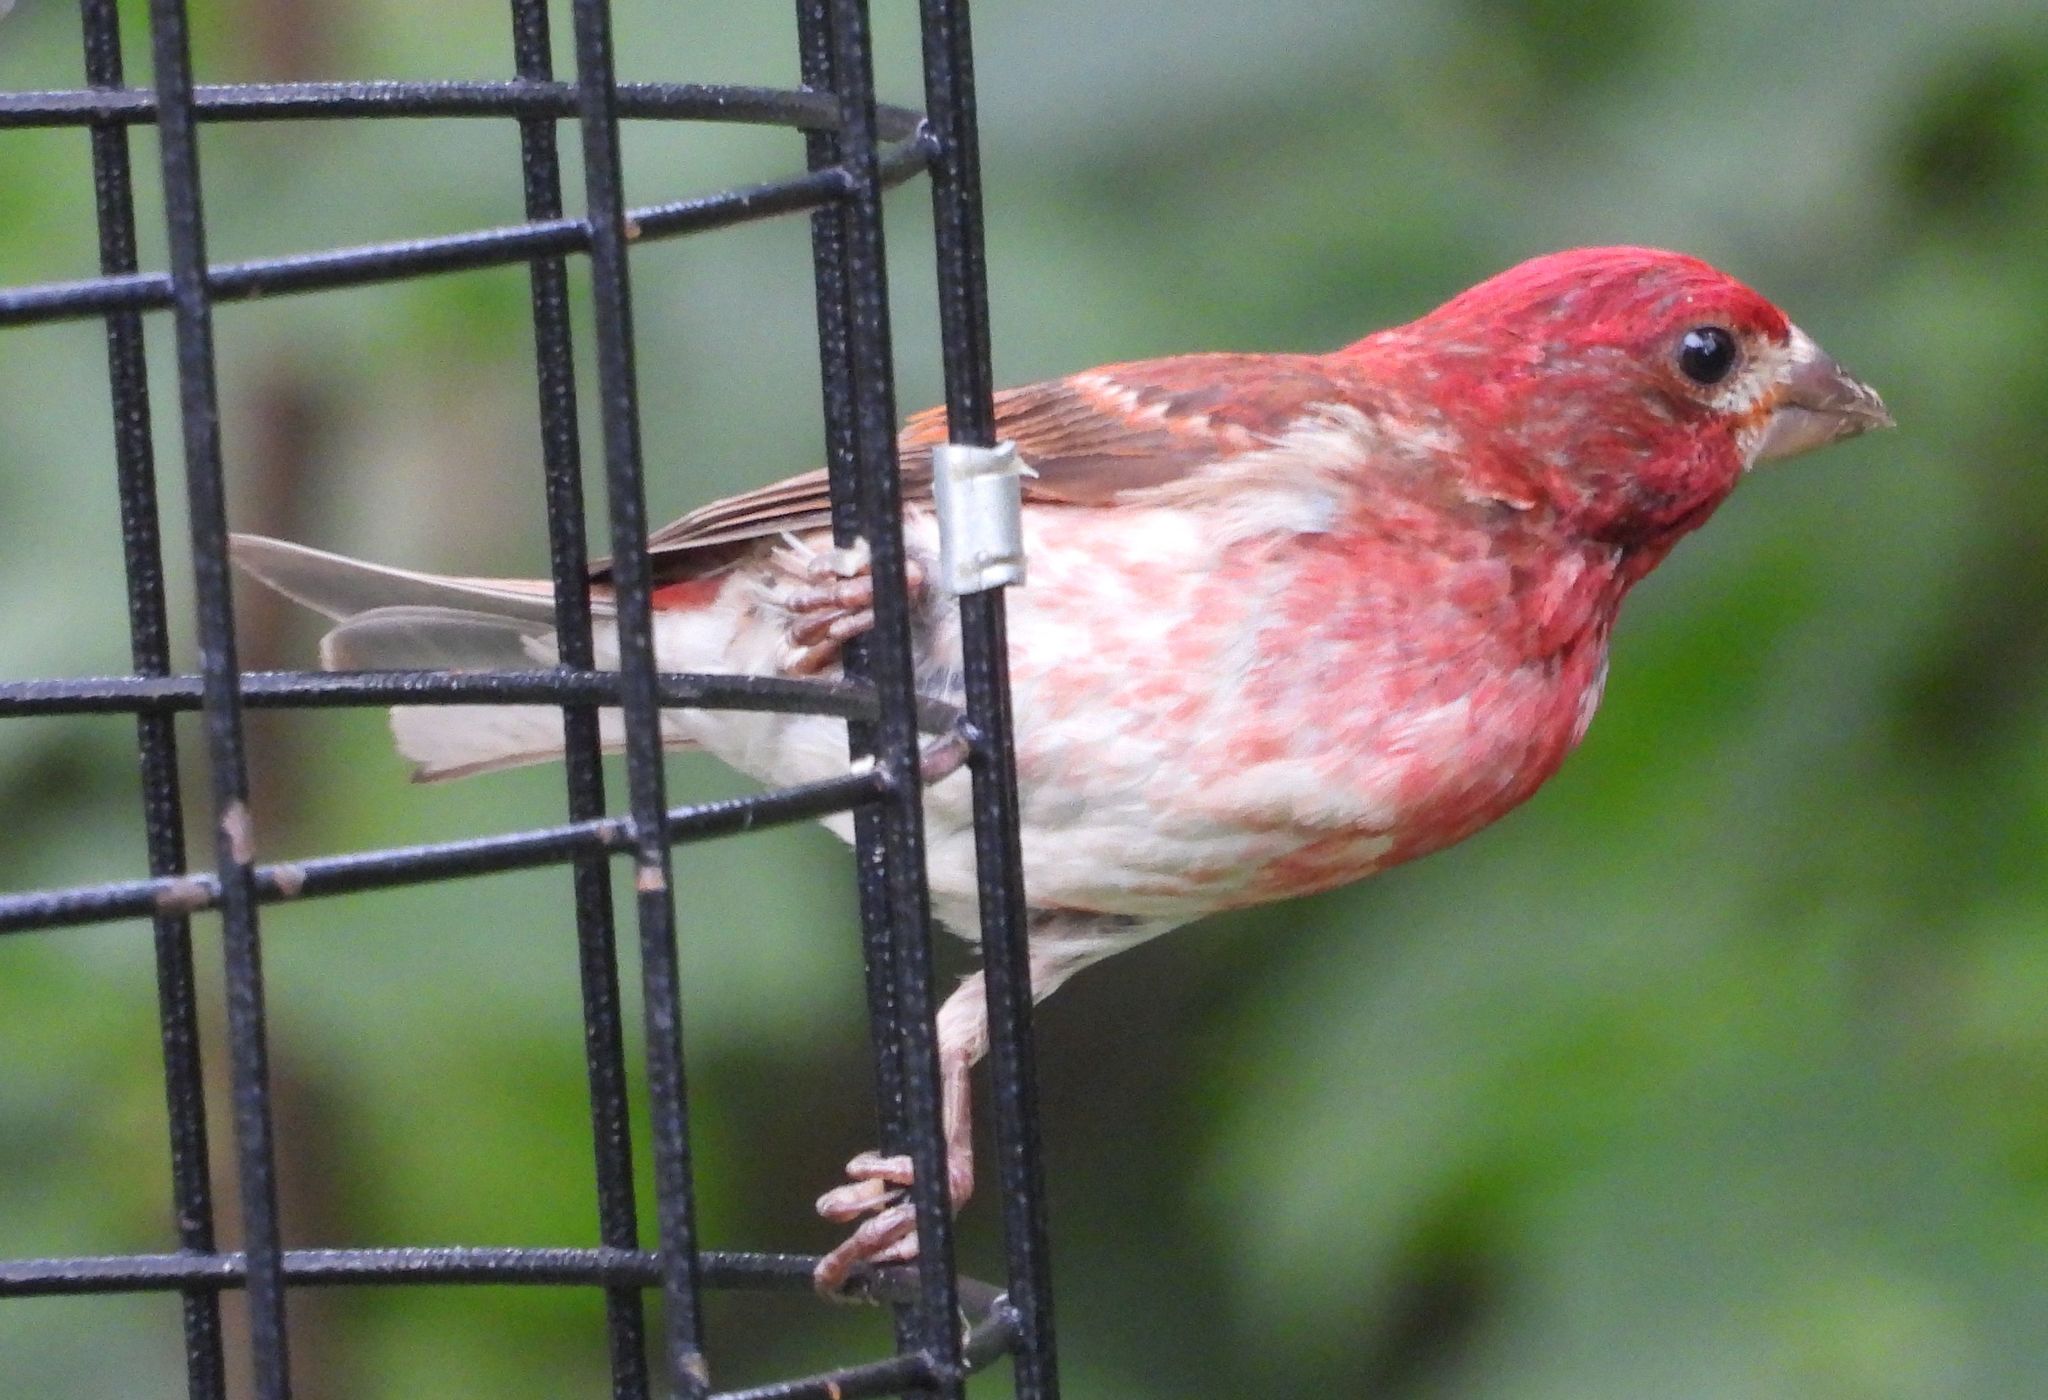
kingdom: Animalia
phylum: Chordata
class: Aves
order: Passeriformes
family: Fringillidae
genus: Haemorhous
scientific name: Haemorhous purpureus
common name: Purple finch
